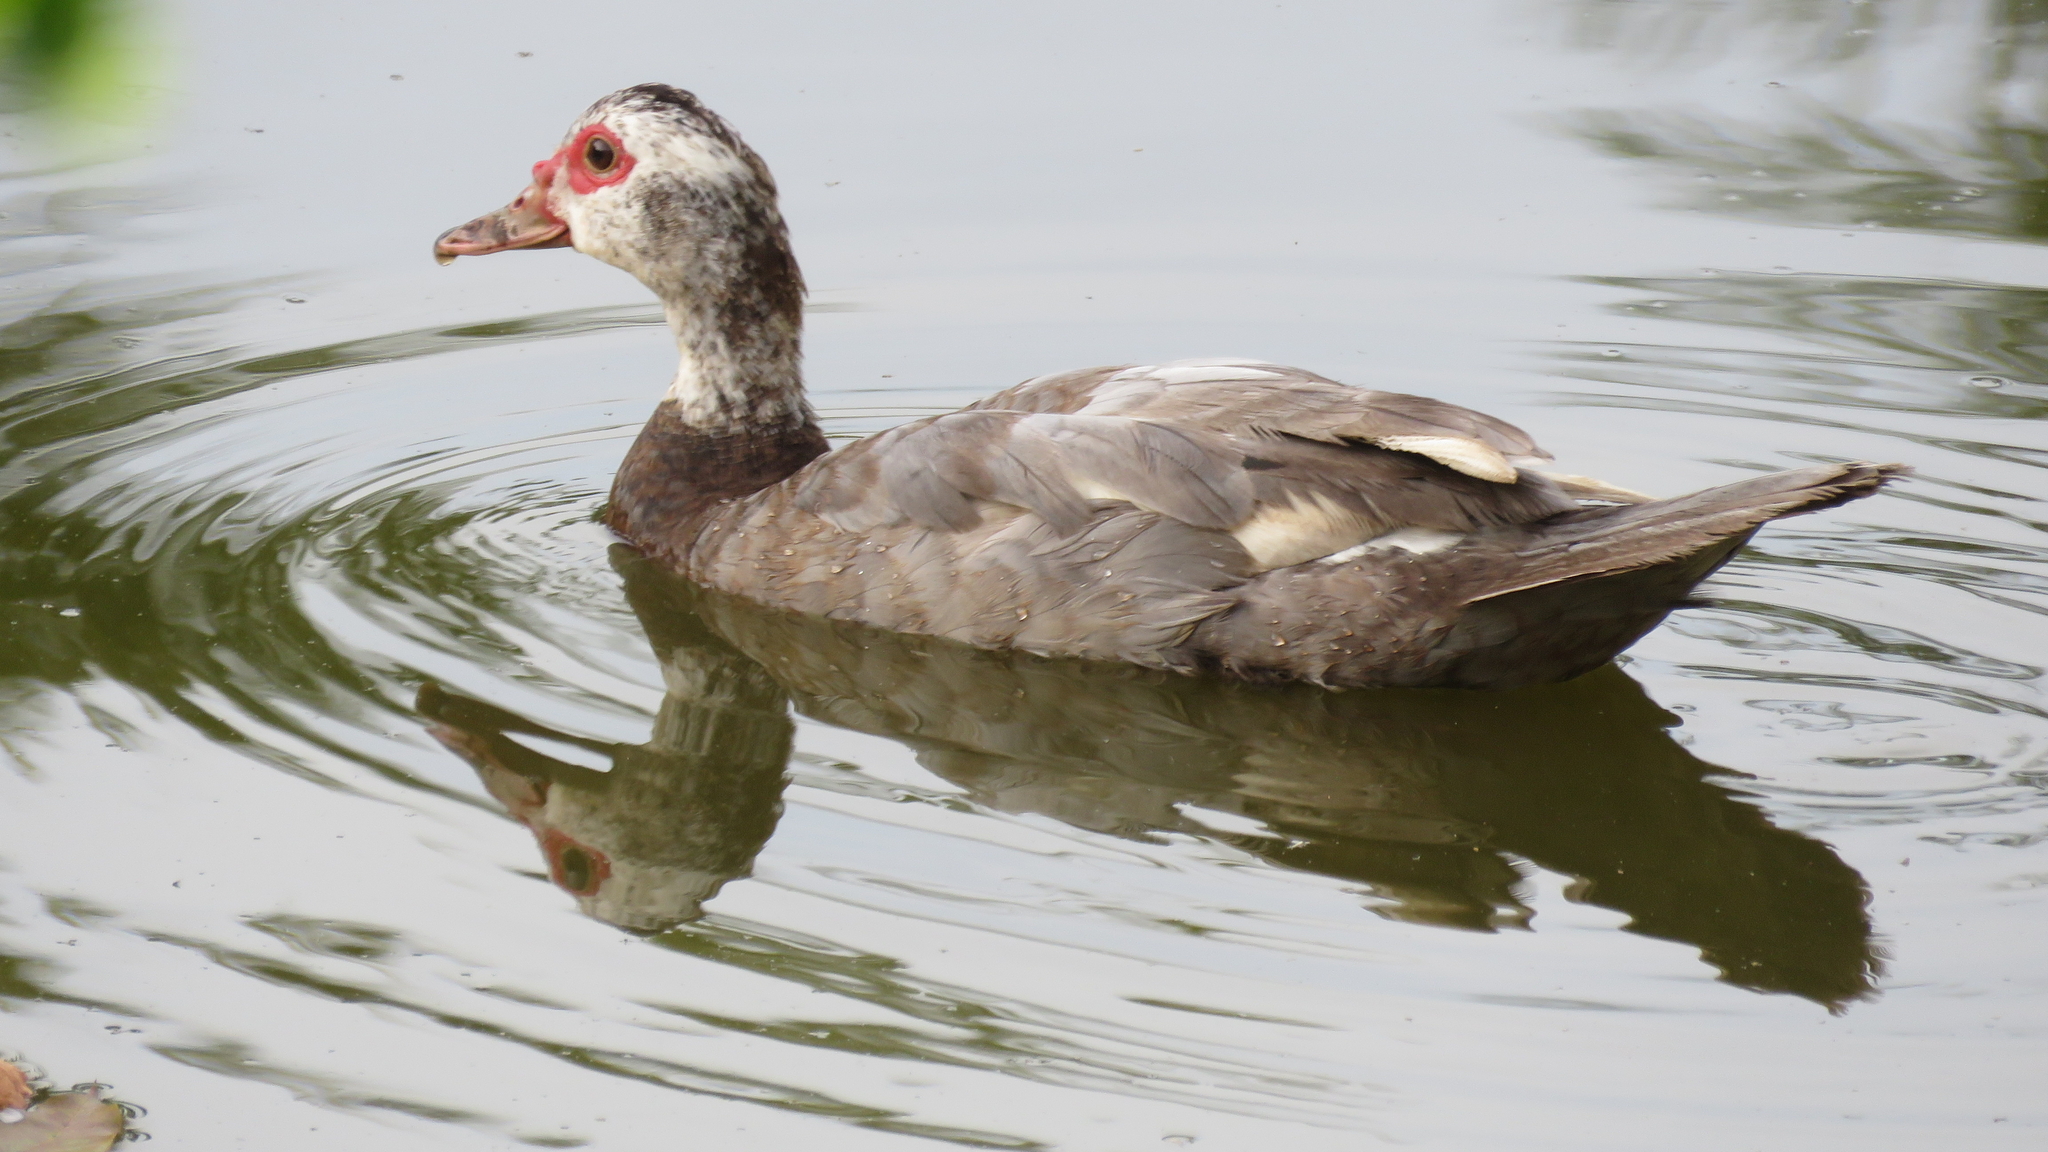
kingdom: Animalia
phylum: Chordata
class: Aves
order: Anseriformes
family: Anatidae
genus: Cairina
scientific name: Cairina moschata
